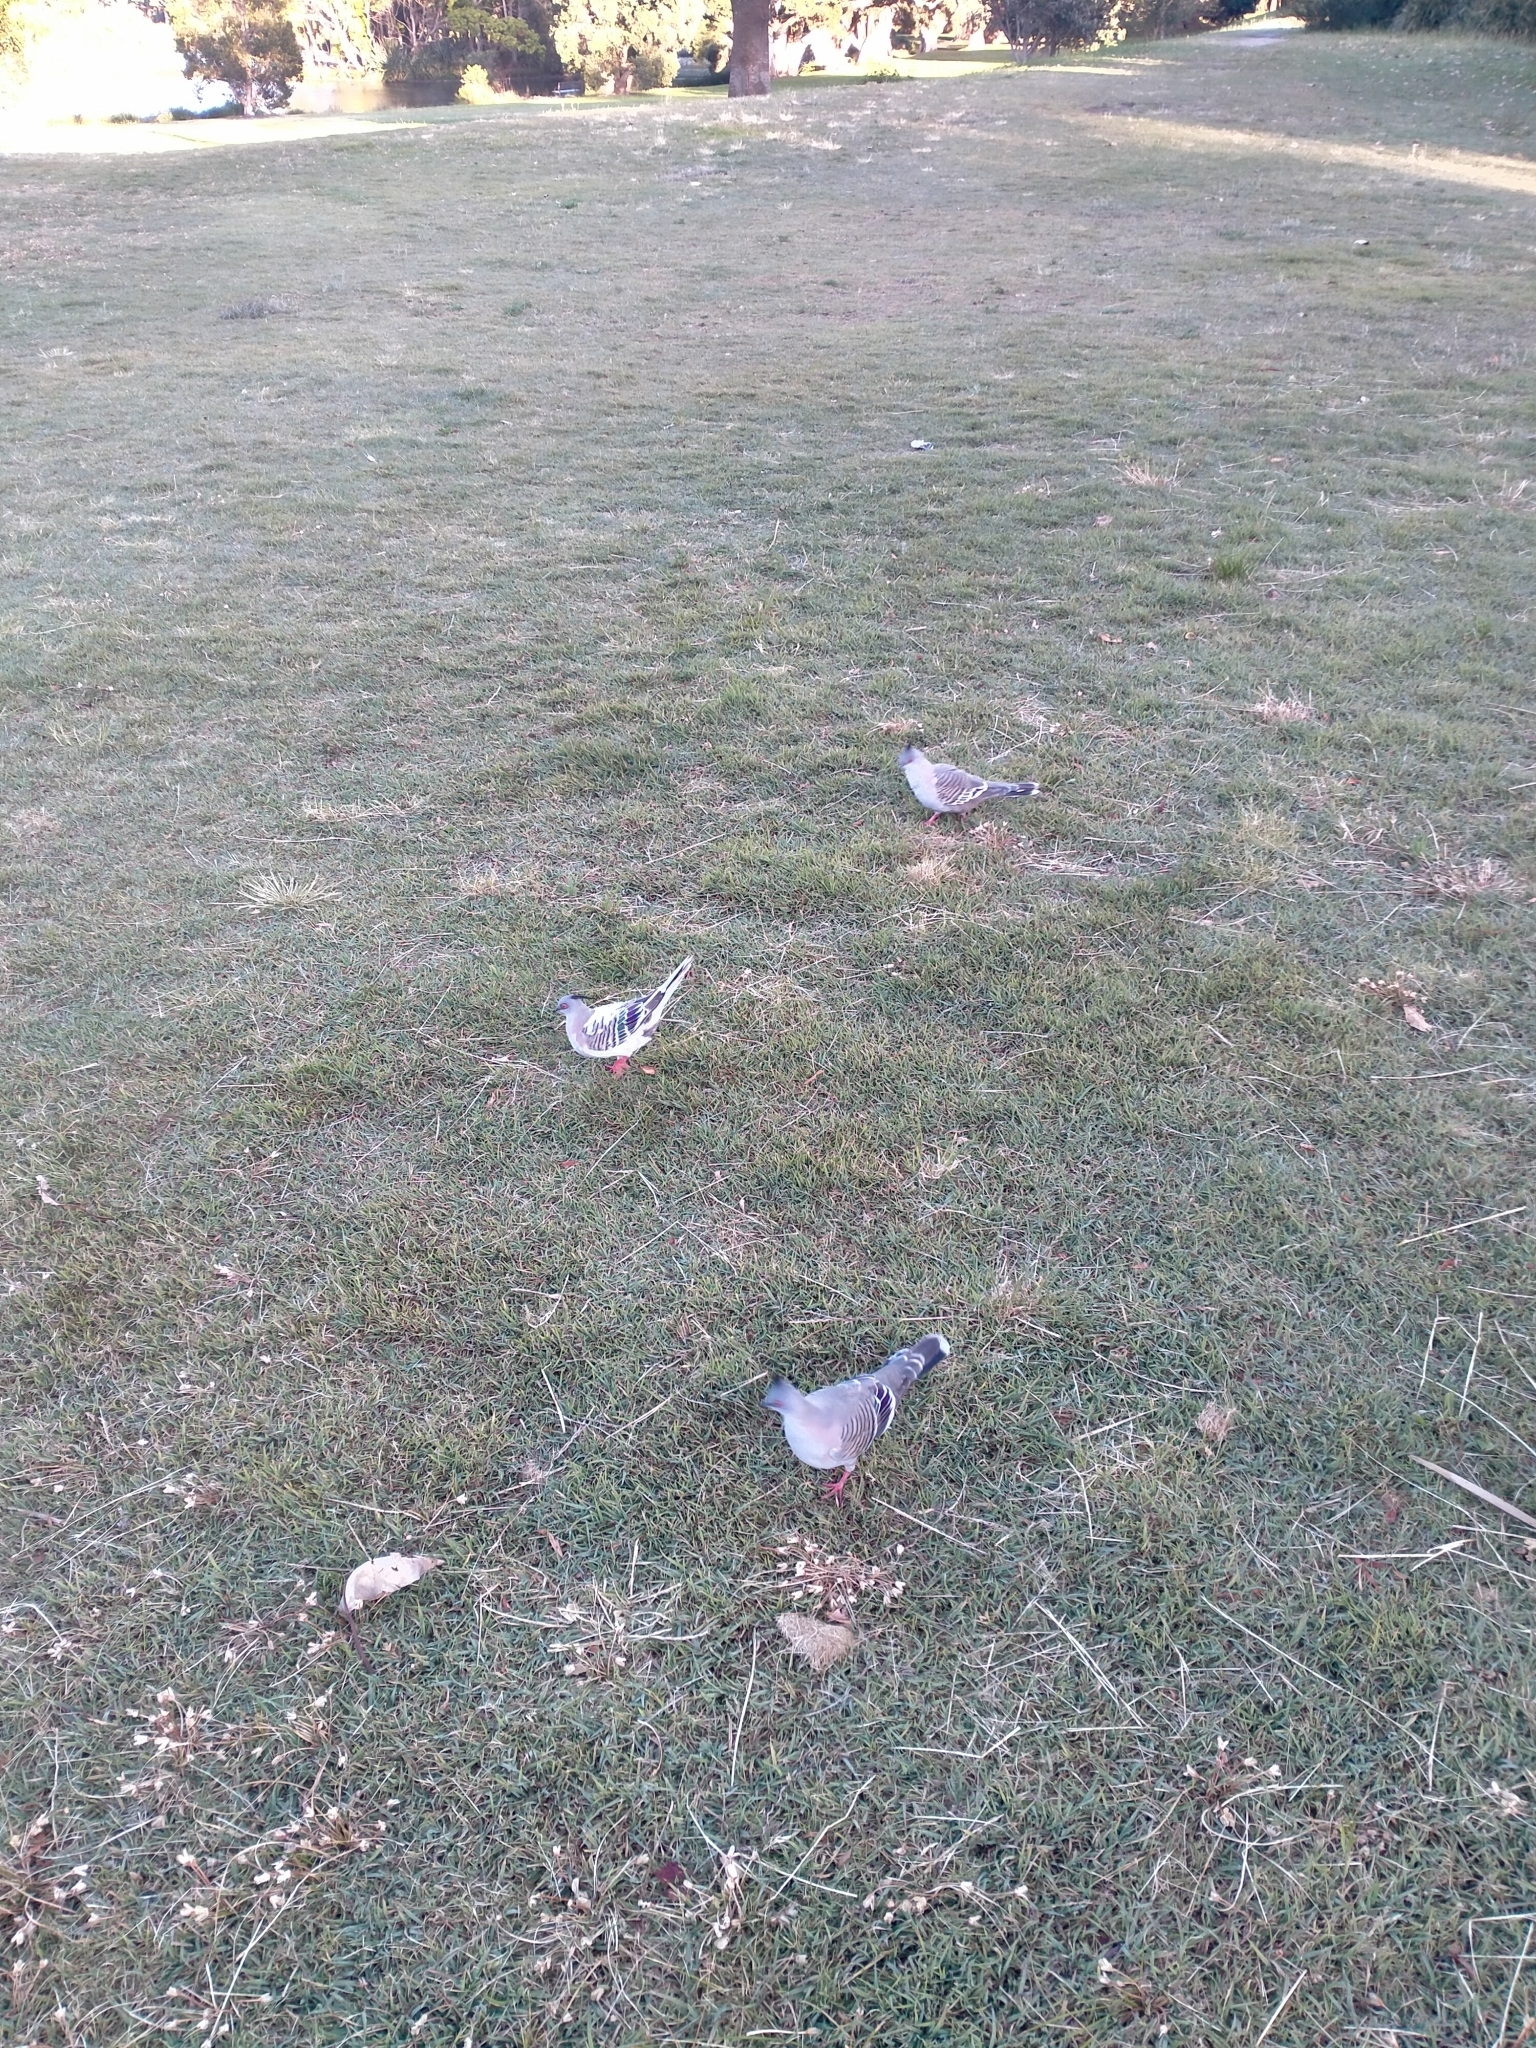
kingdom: Animalia
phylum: Chordata
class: Aves
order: Columbiformes
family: Columbidae
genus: Ocyphaps
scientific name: Ocyphaps lophotes
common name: Crested pigeon
